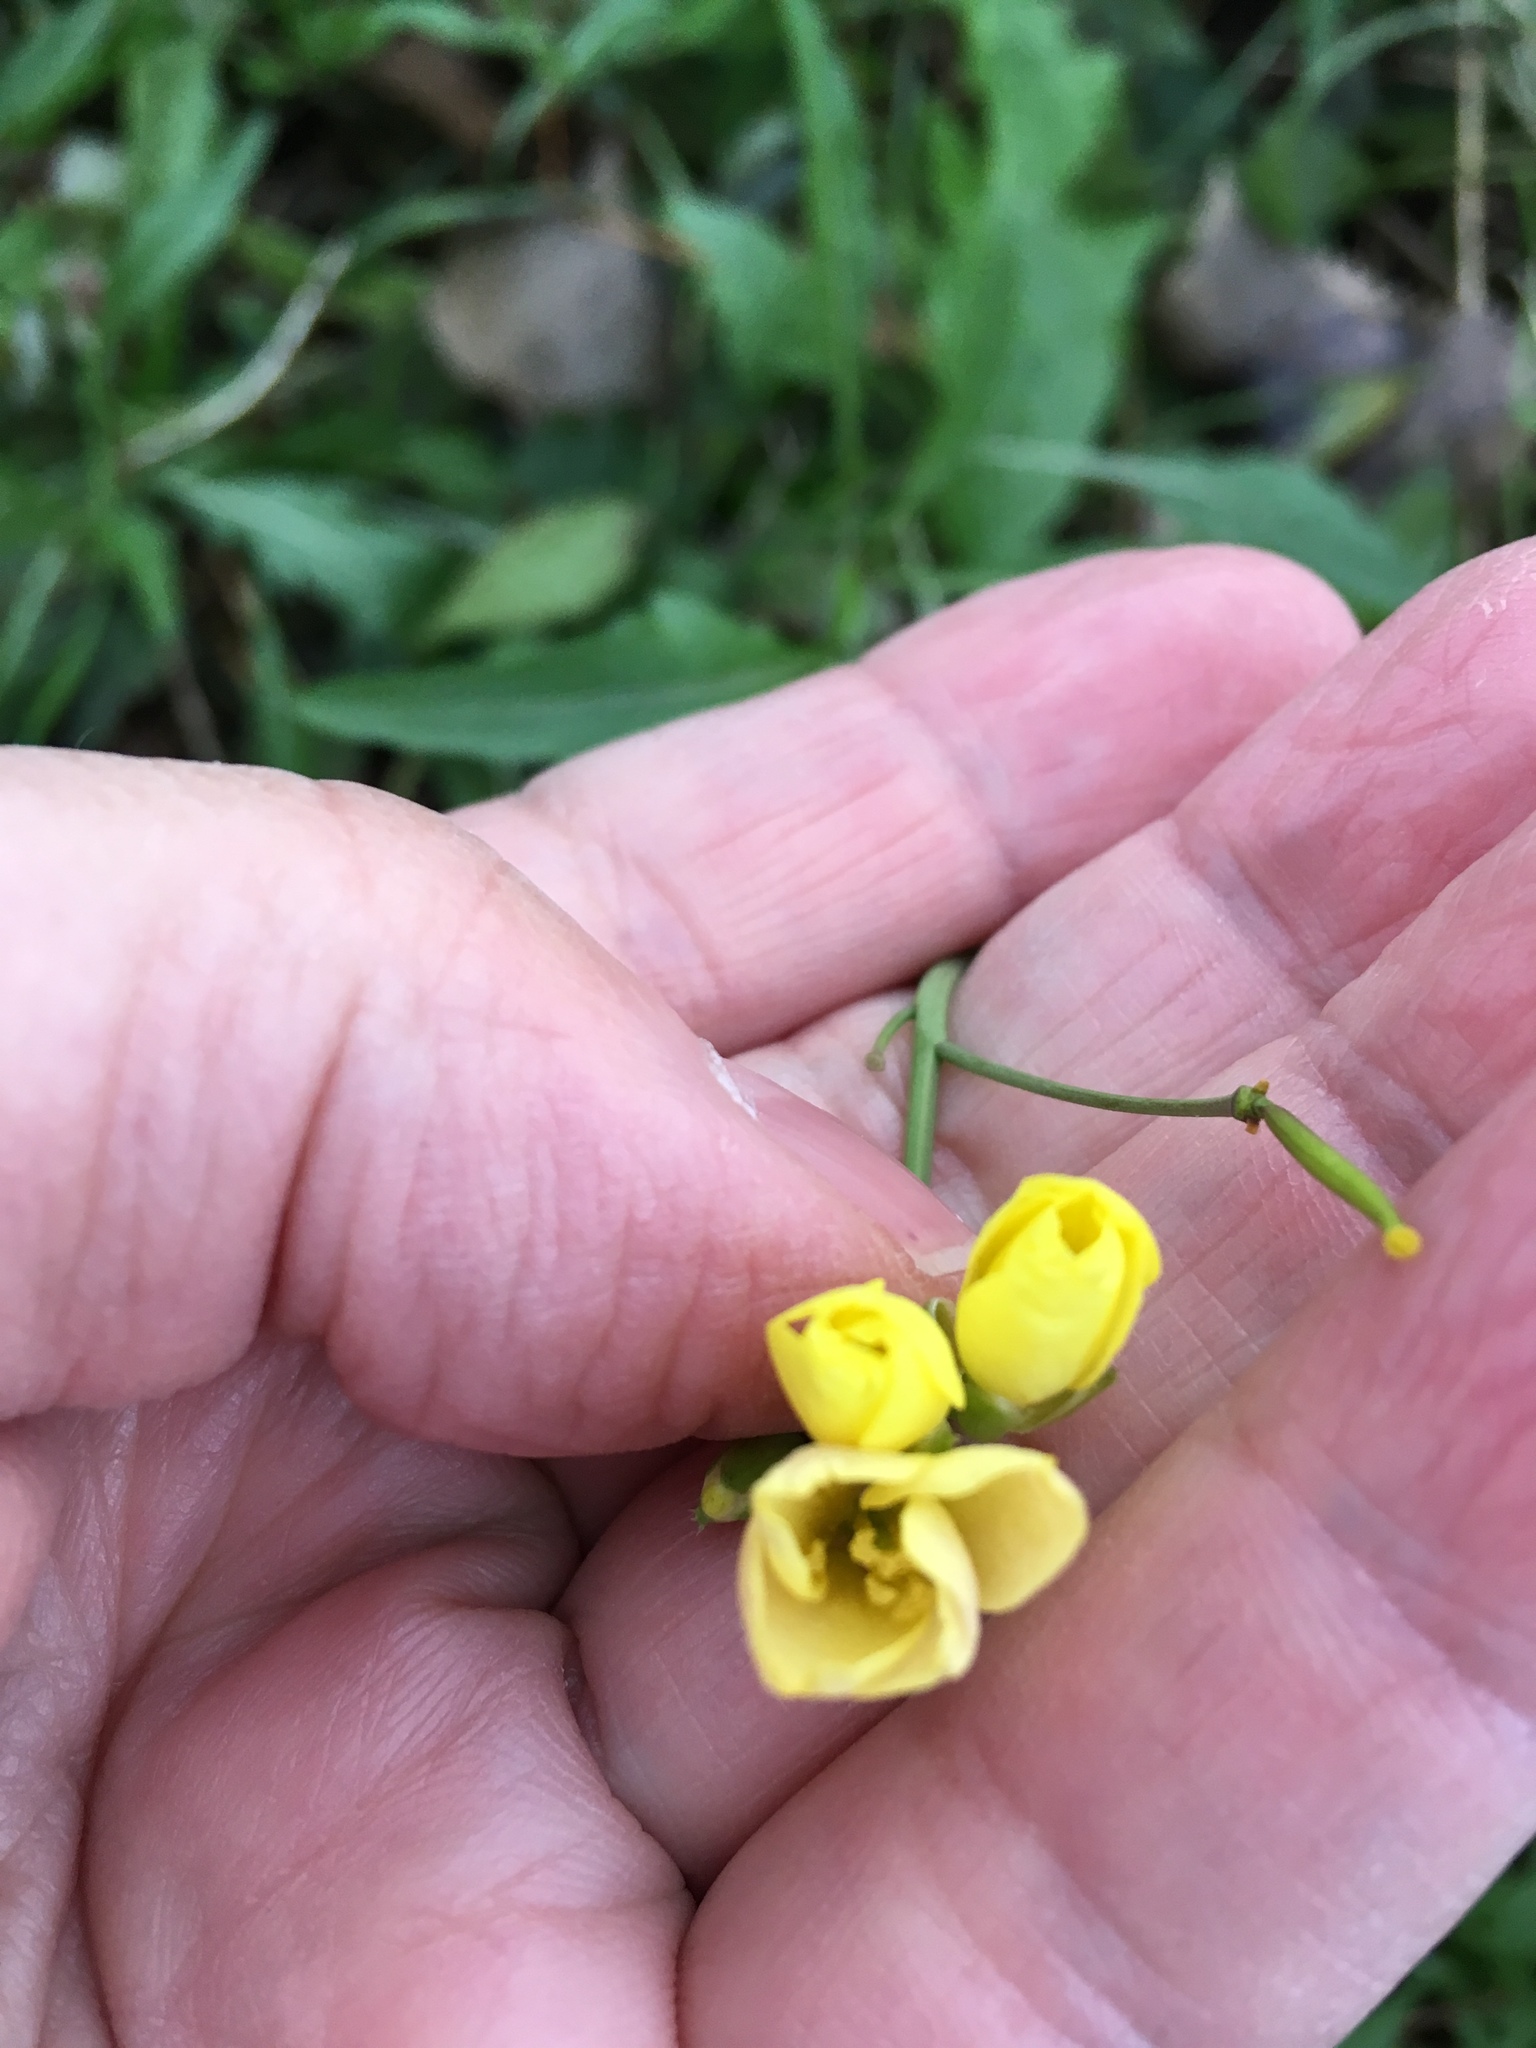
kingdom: Plantae
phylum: Tracheophyta
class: Magnoliopsida
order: Brassicales
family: Brassicaceae
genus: Diplotaxis
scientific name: Diplotaxis tenuifolia
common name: Perennial wall-rocket
